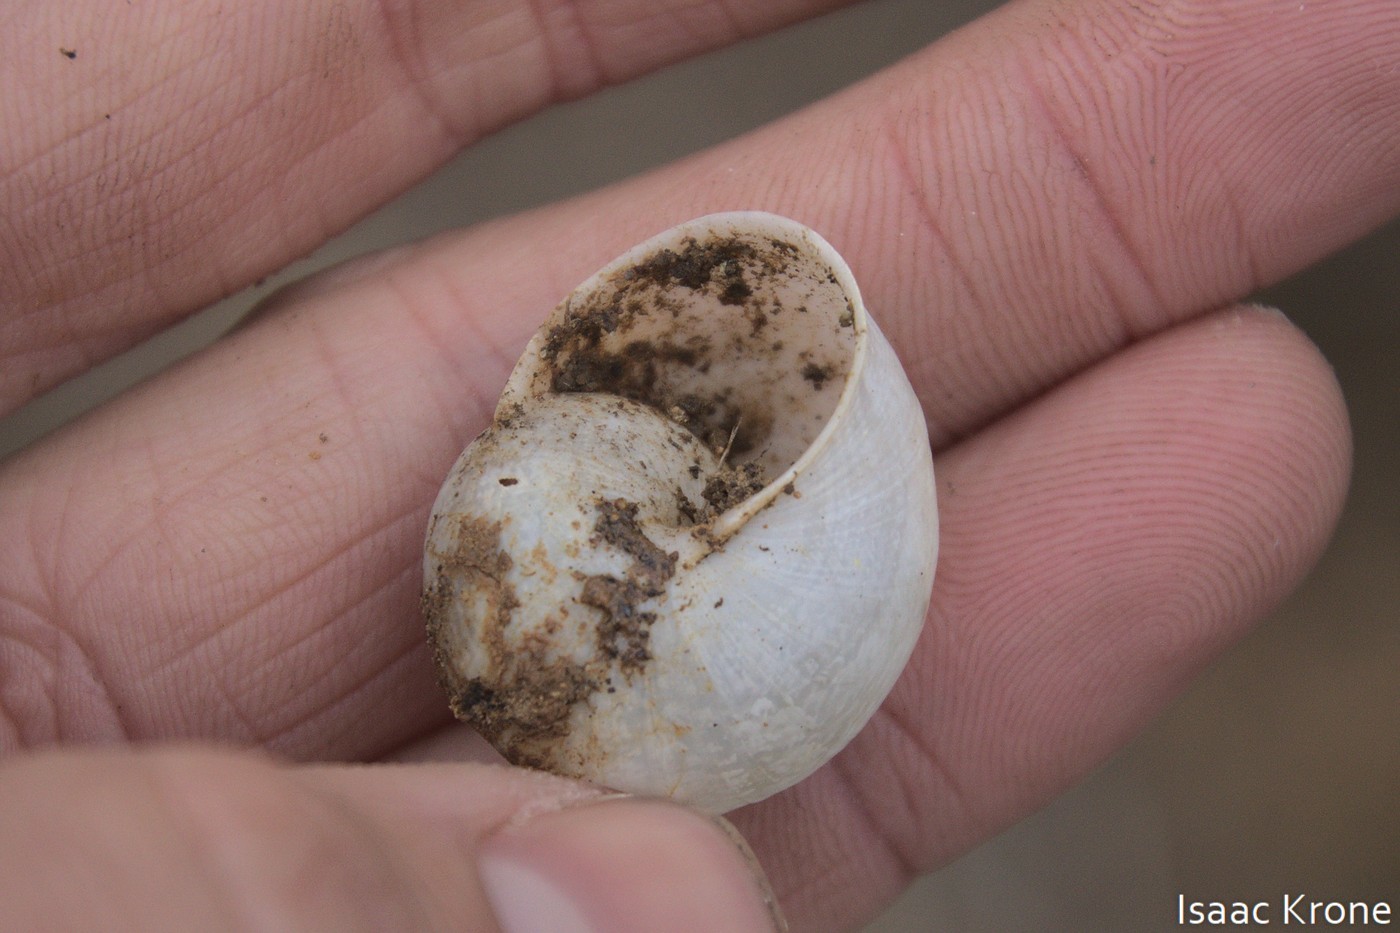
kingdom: Animalia
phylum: Mollusca
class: Gastropoda
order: Stylommatophora
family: Xanthonychidae
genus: Xerarionta
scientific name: Xerarionta kellettii
